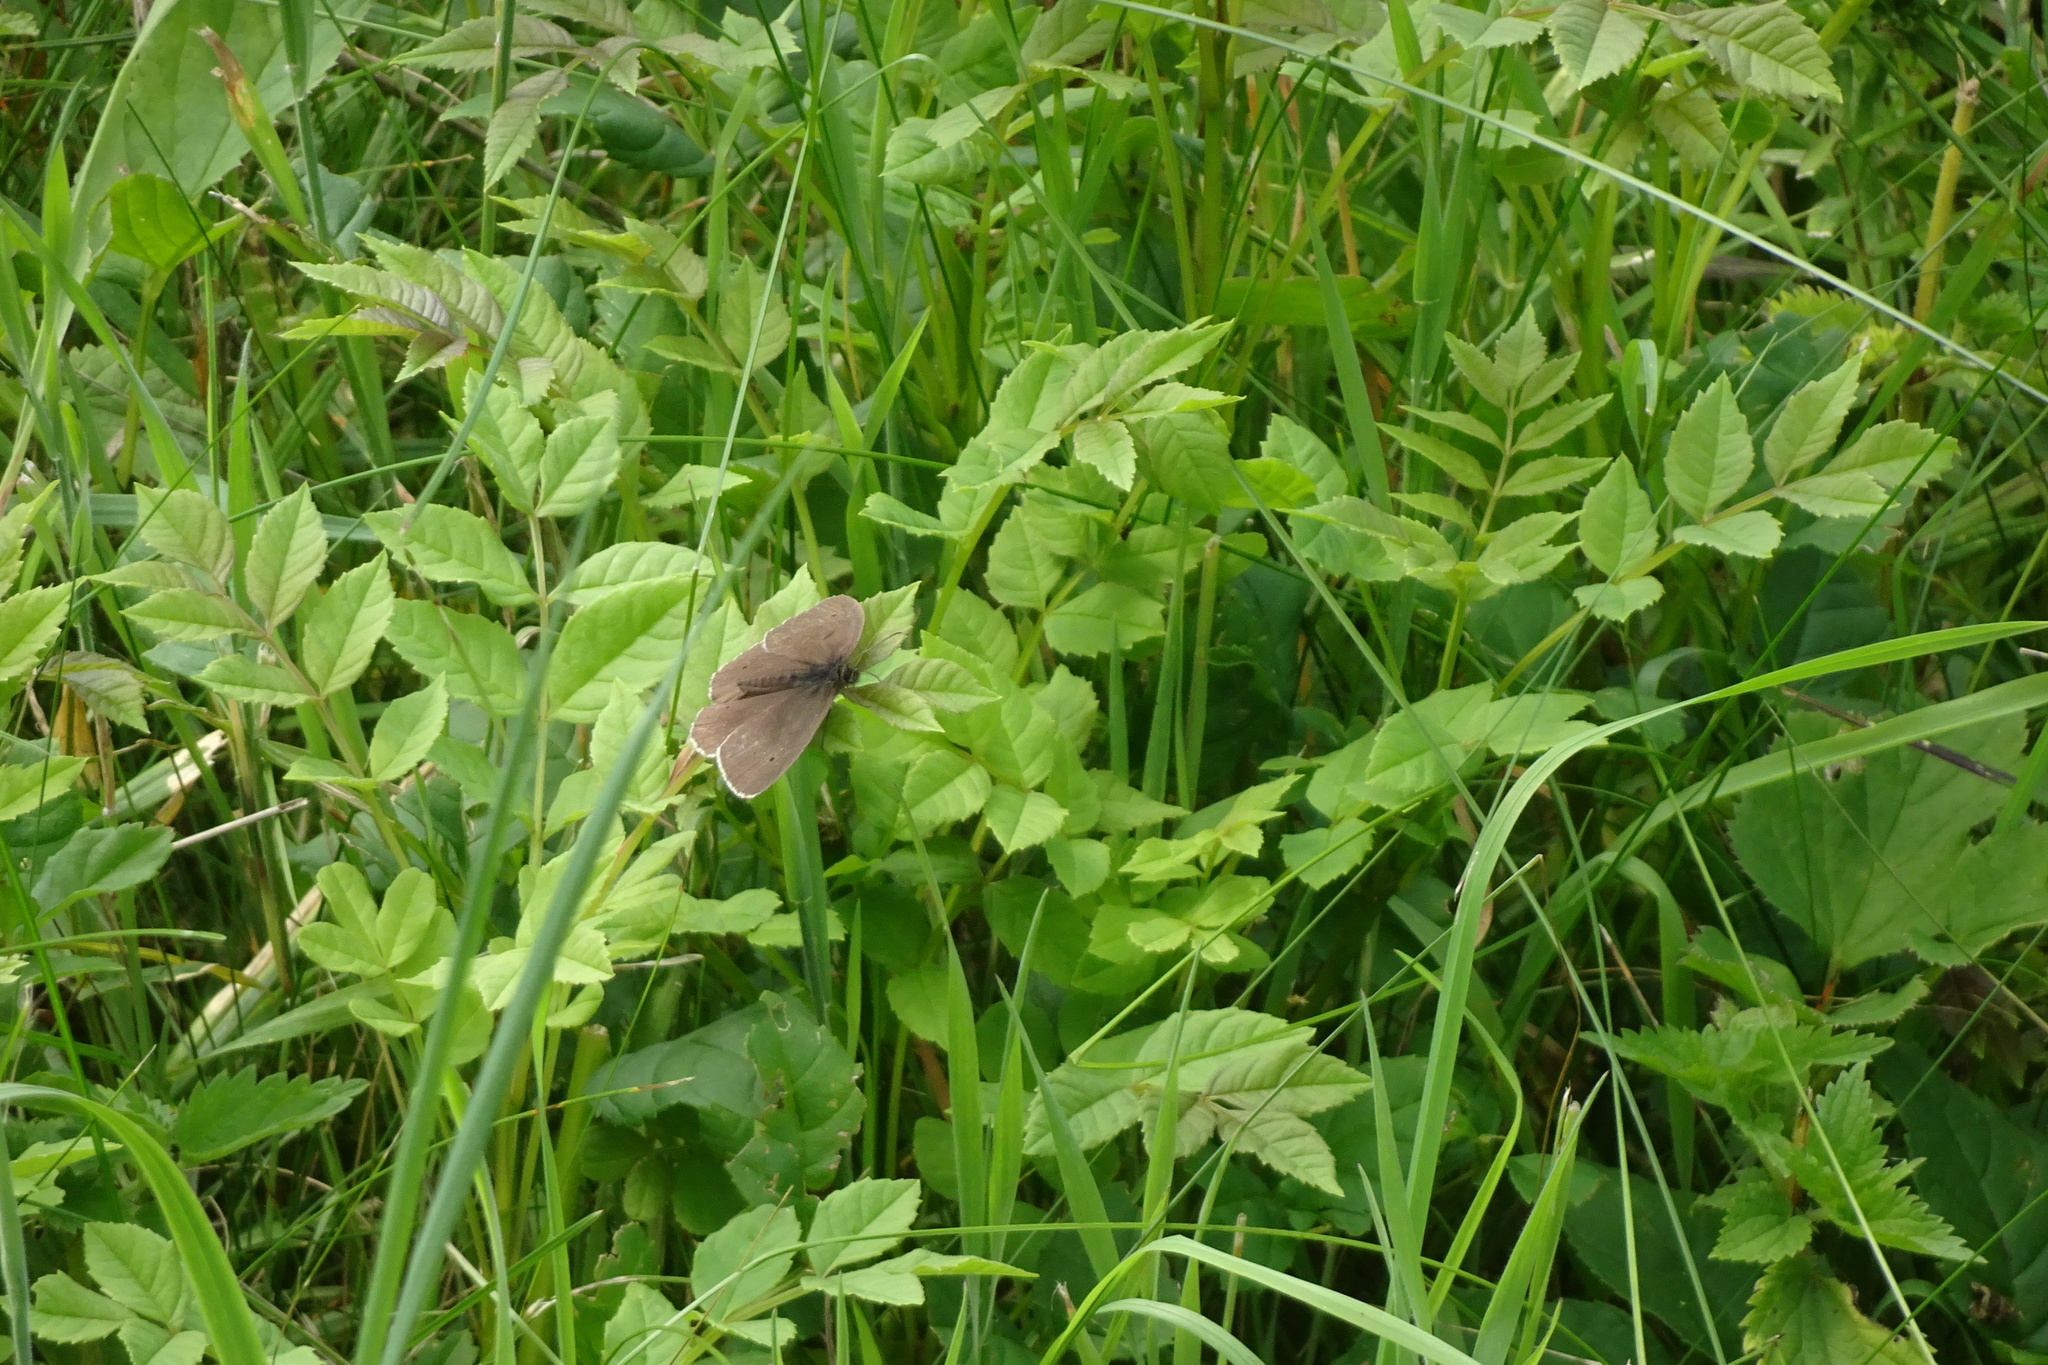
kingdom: Animalia
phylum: Arthropoda
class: Insecta
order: Lepidoptera
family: Nymphalidae
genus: Aphantopus
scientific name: Aphantopus hyperantus
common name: Ringlet
